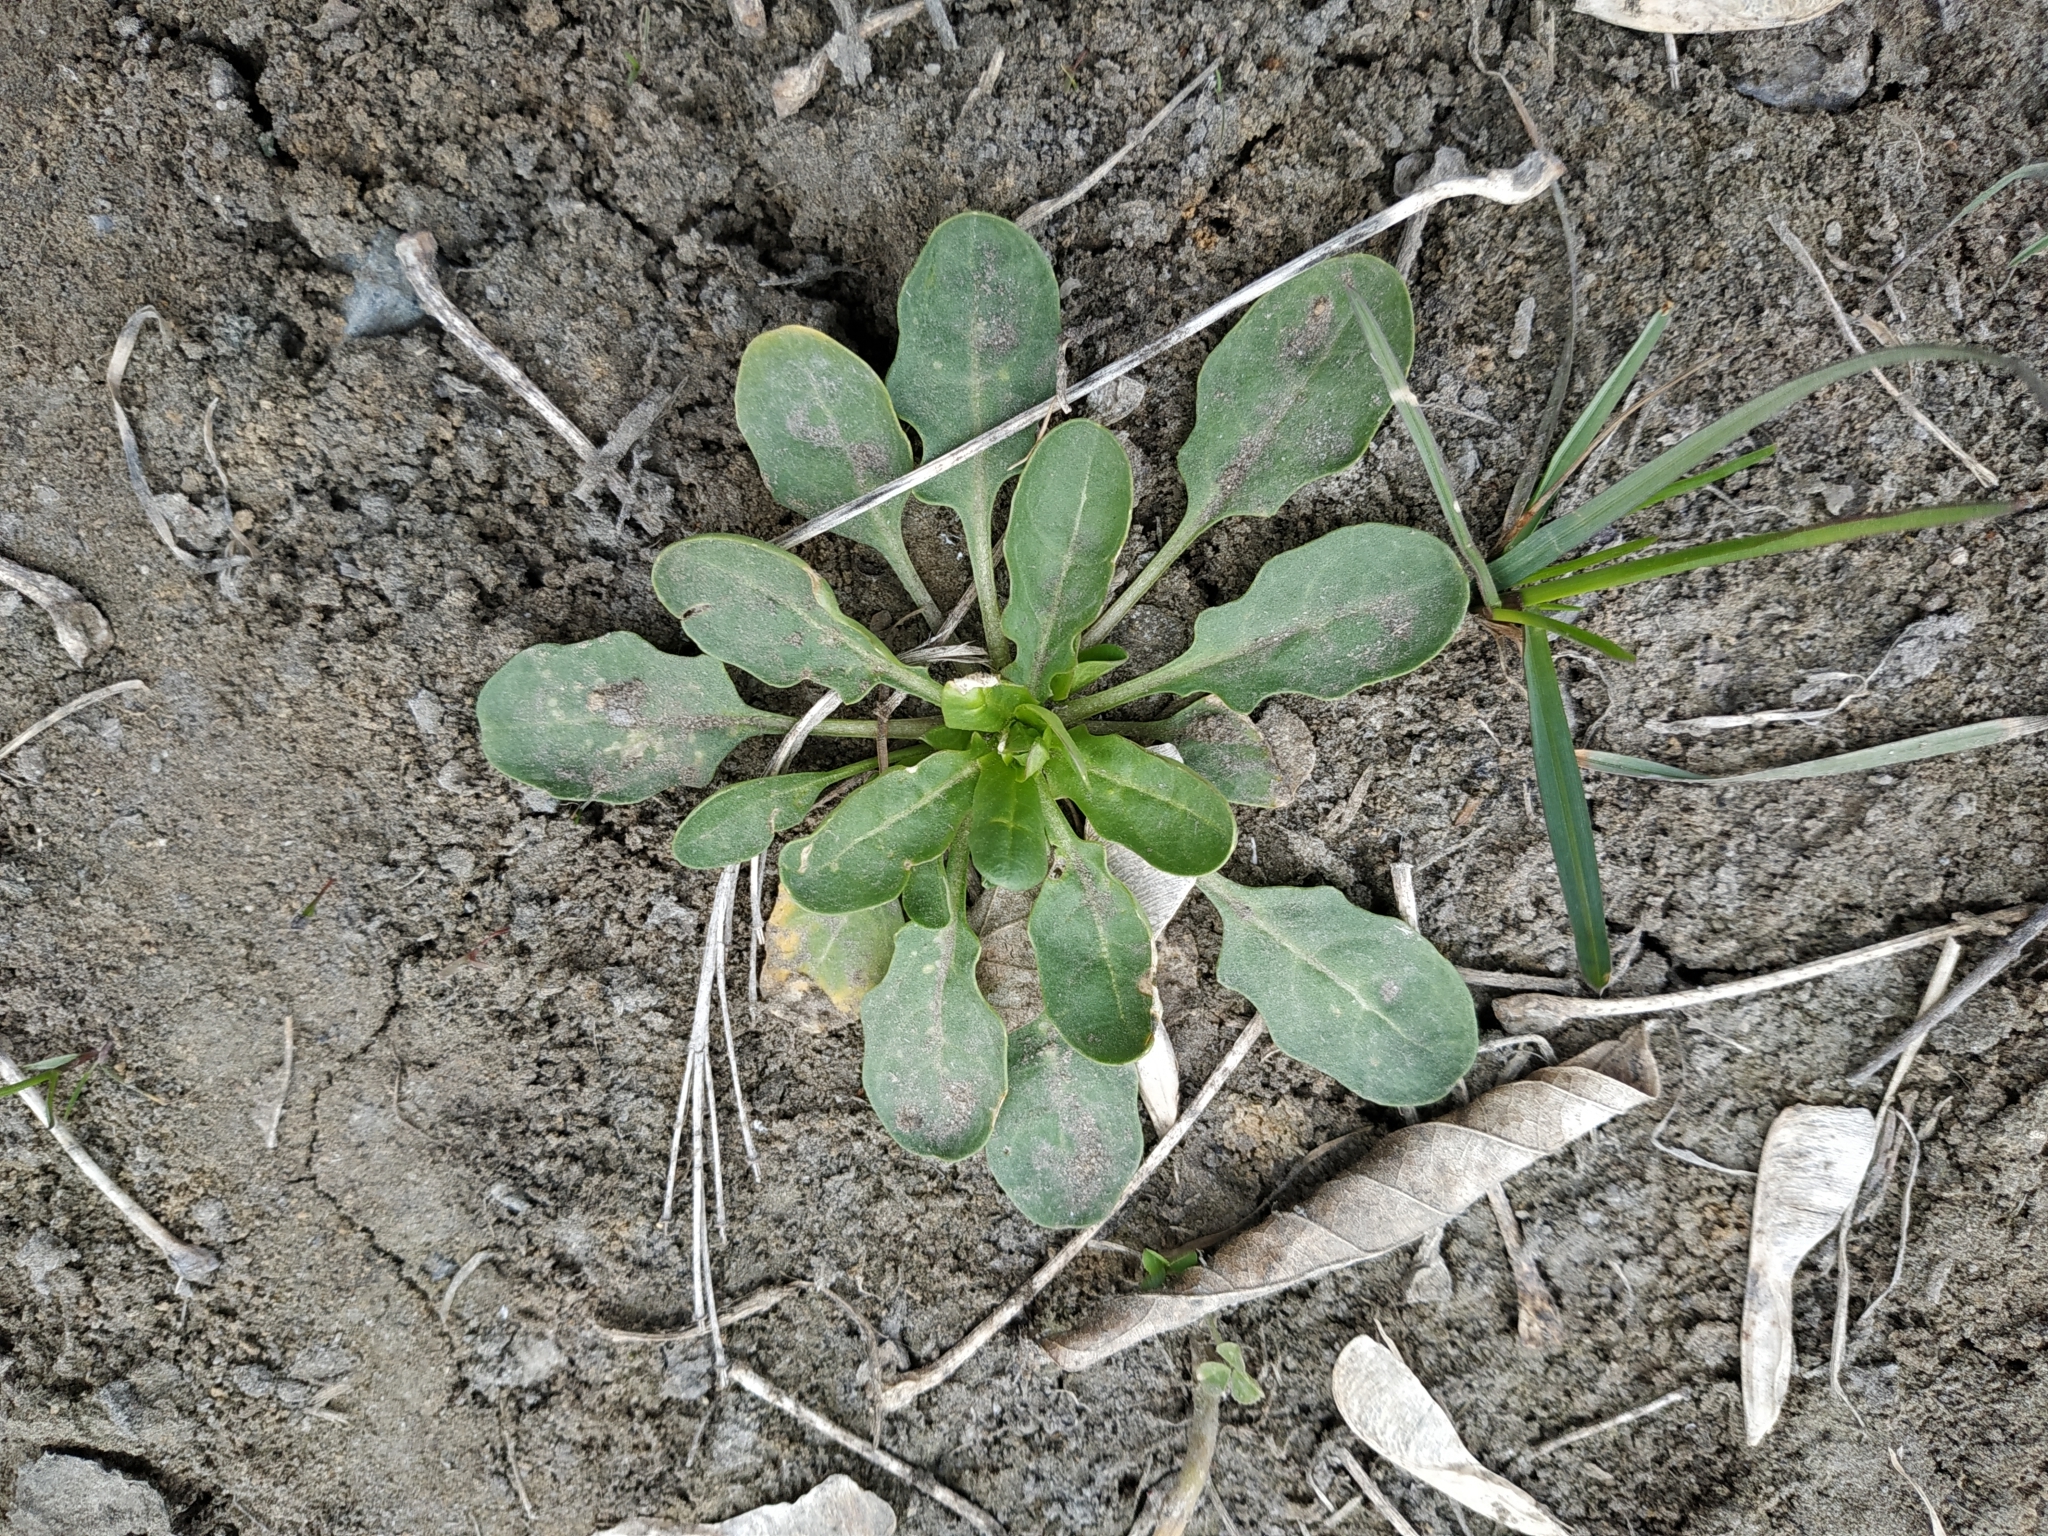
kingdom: Plantae
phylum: Tracheophyta
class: Magnoliopsida
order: Brassicales
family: Brassicaceae
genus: Thlaspi
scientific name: Thlaspi arvense
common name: Field pennycress
